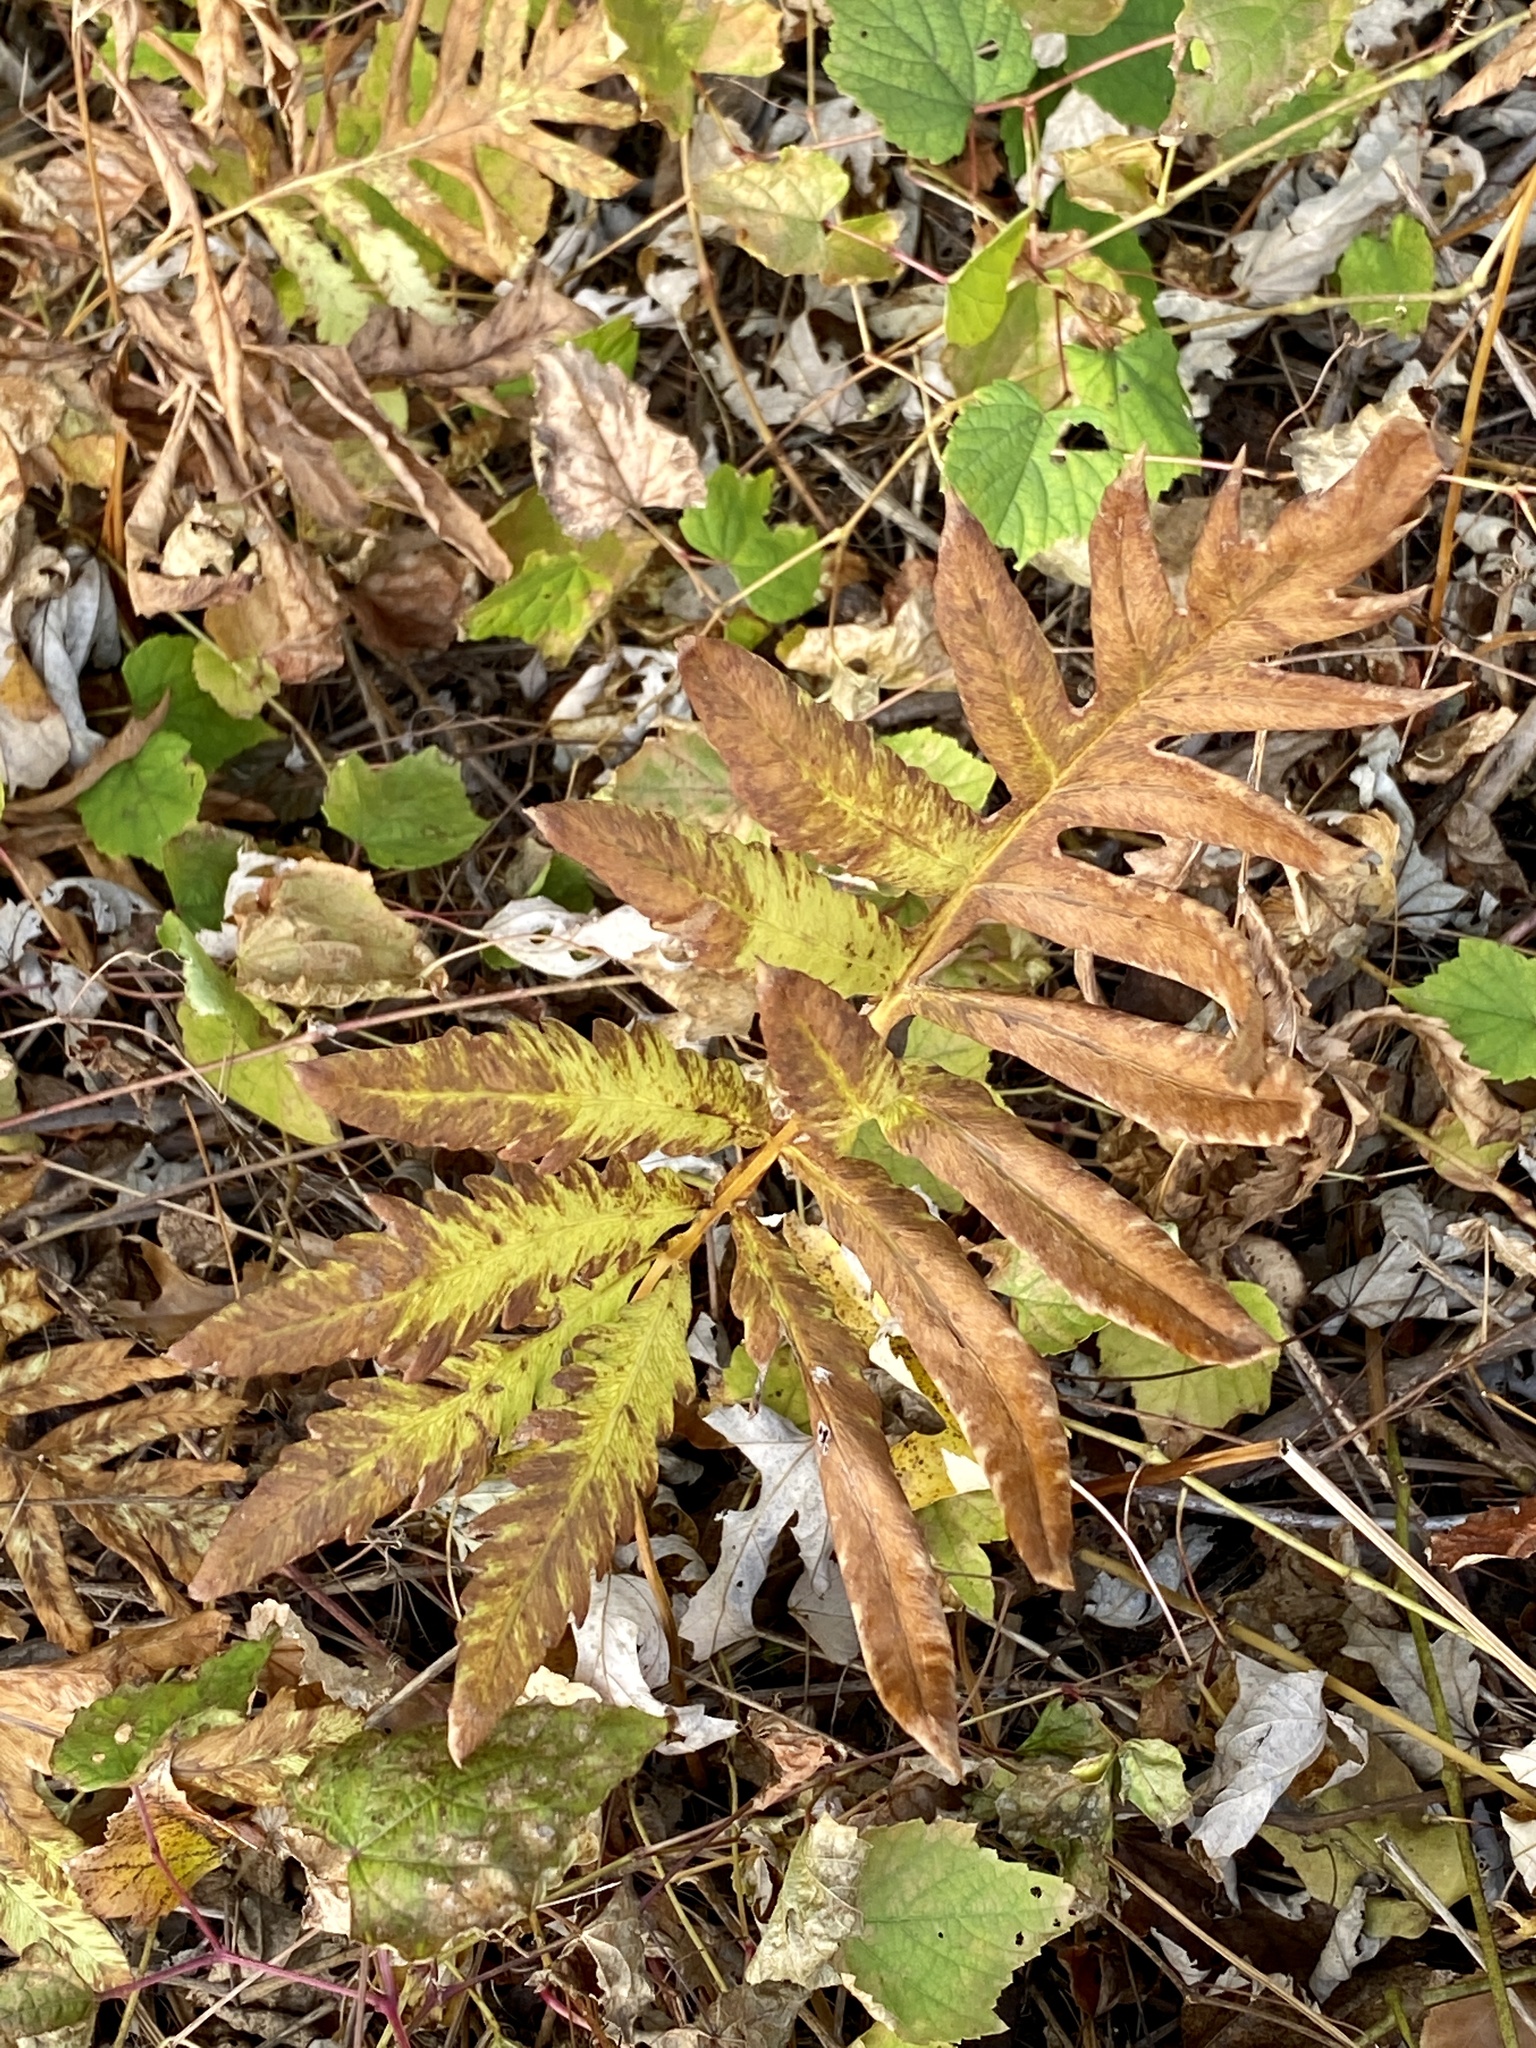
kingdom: Plantae
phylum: Tracheophyta
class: Polypodiopsida
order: Polypodiales
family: Onocleaceae
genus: Onoclea
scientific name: Onoclea sensibilis
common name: Sensitive fern
